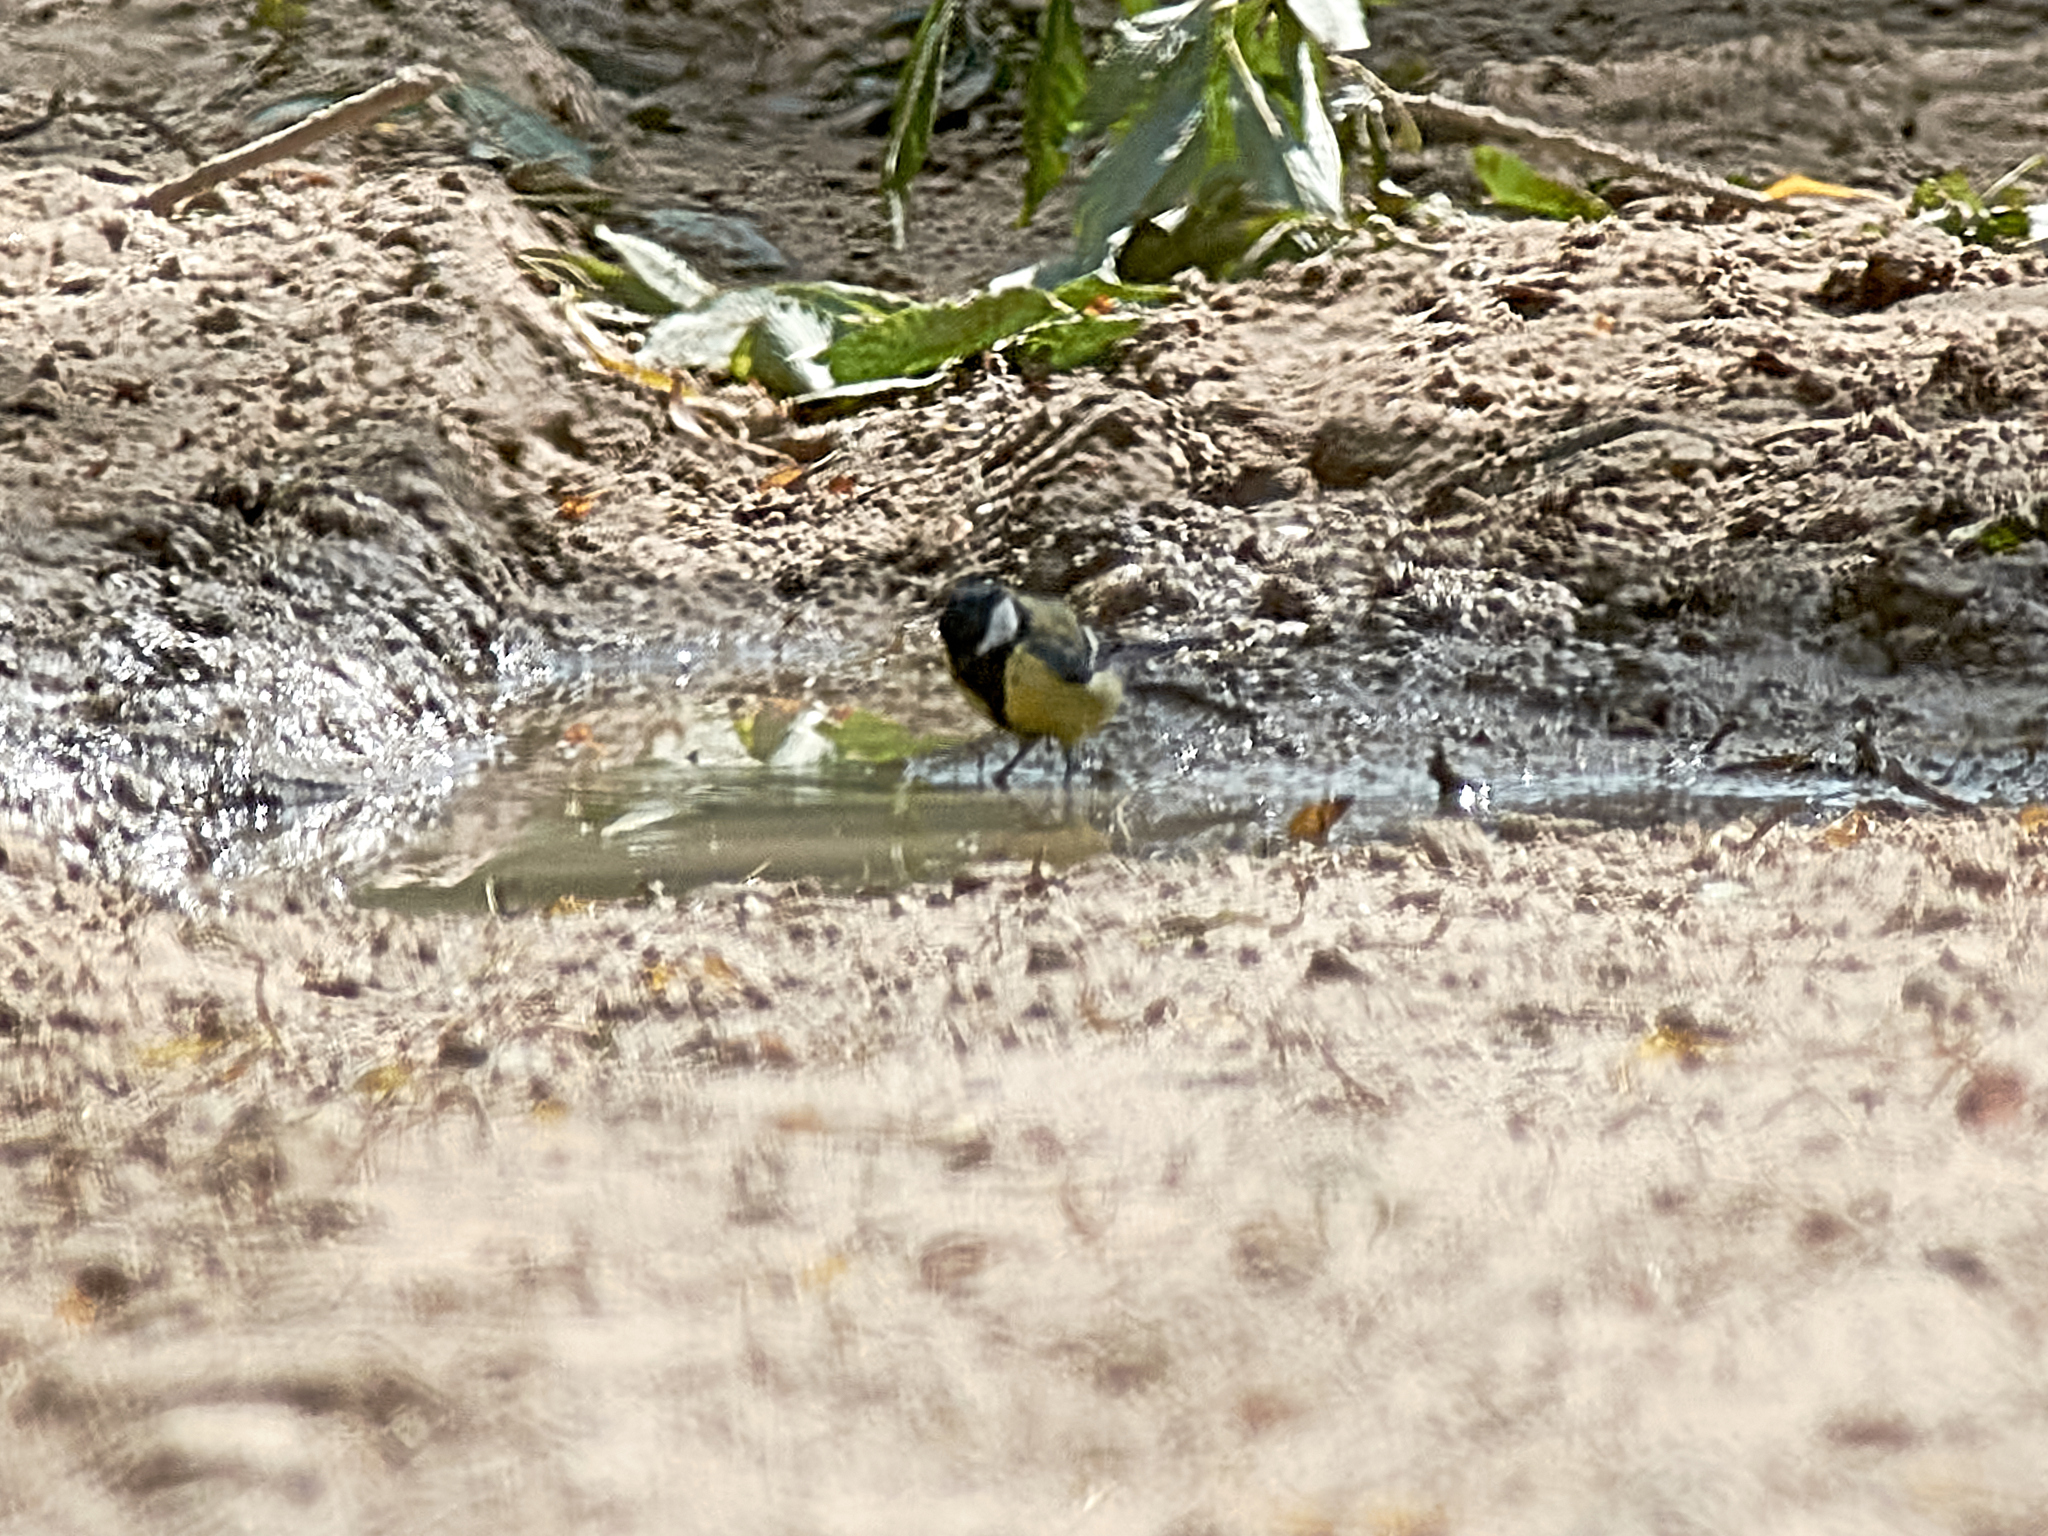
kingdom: Animalia
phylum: Chordata
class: Aves
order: Passeriformes
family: Paridae
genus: Parus
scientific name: Parus major
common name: Great tit
